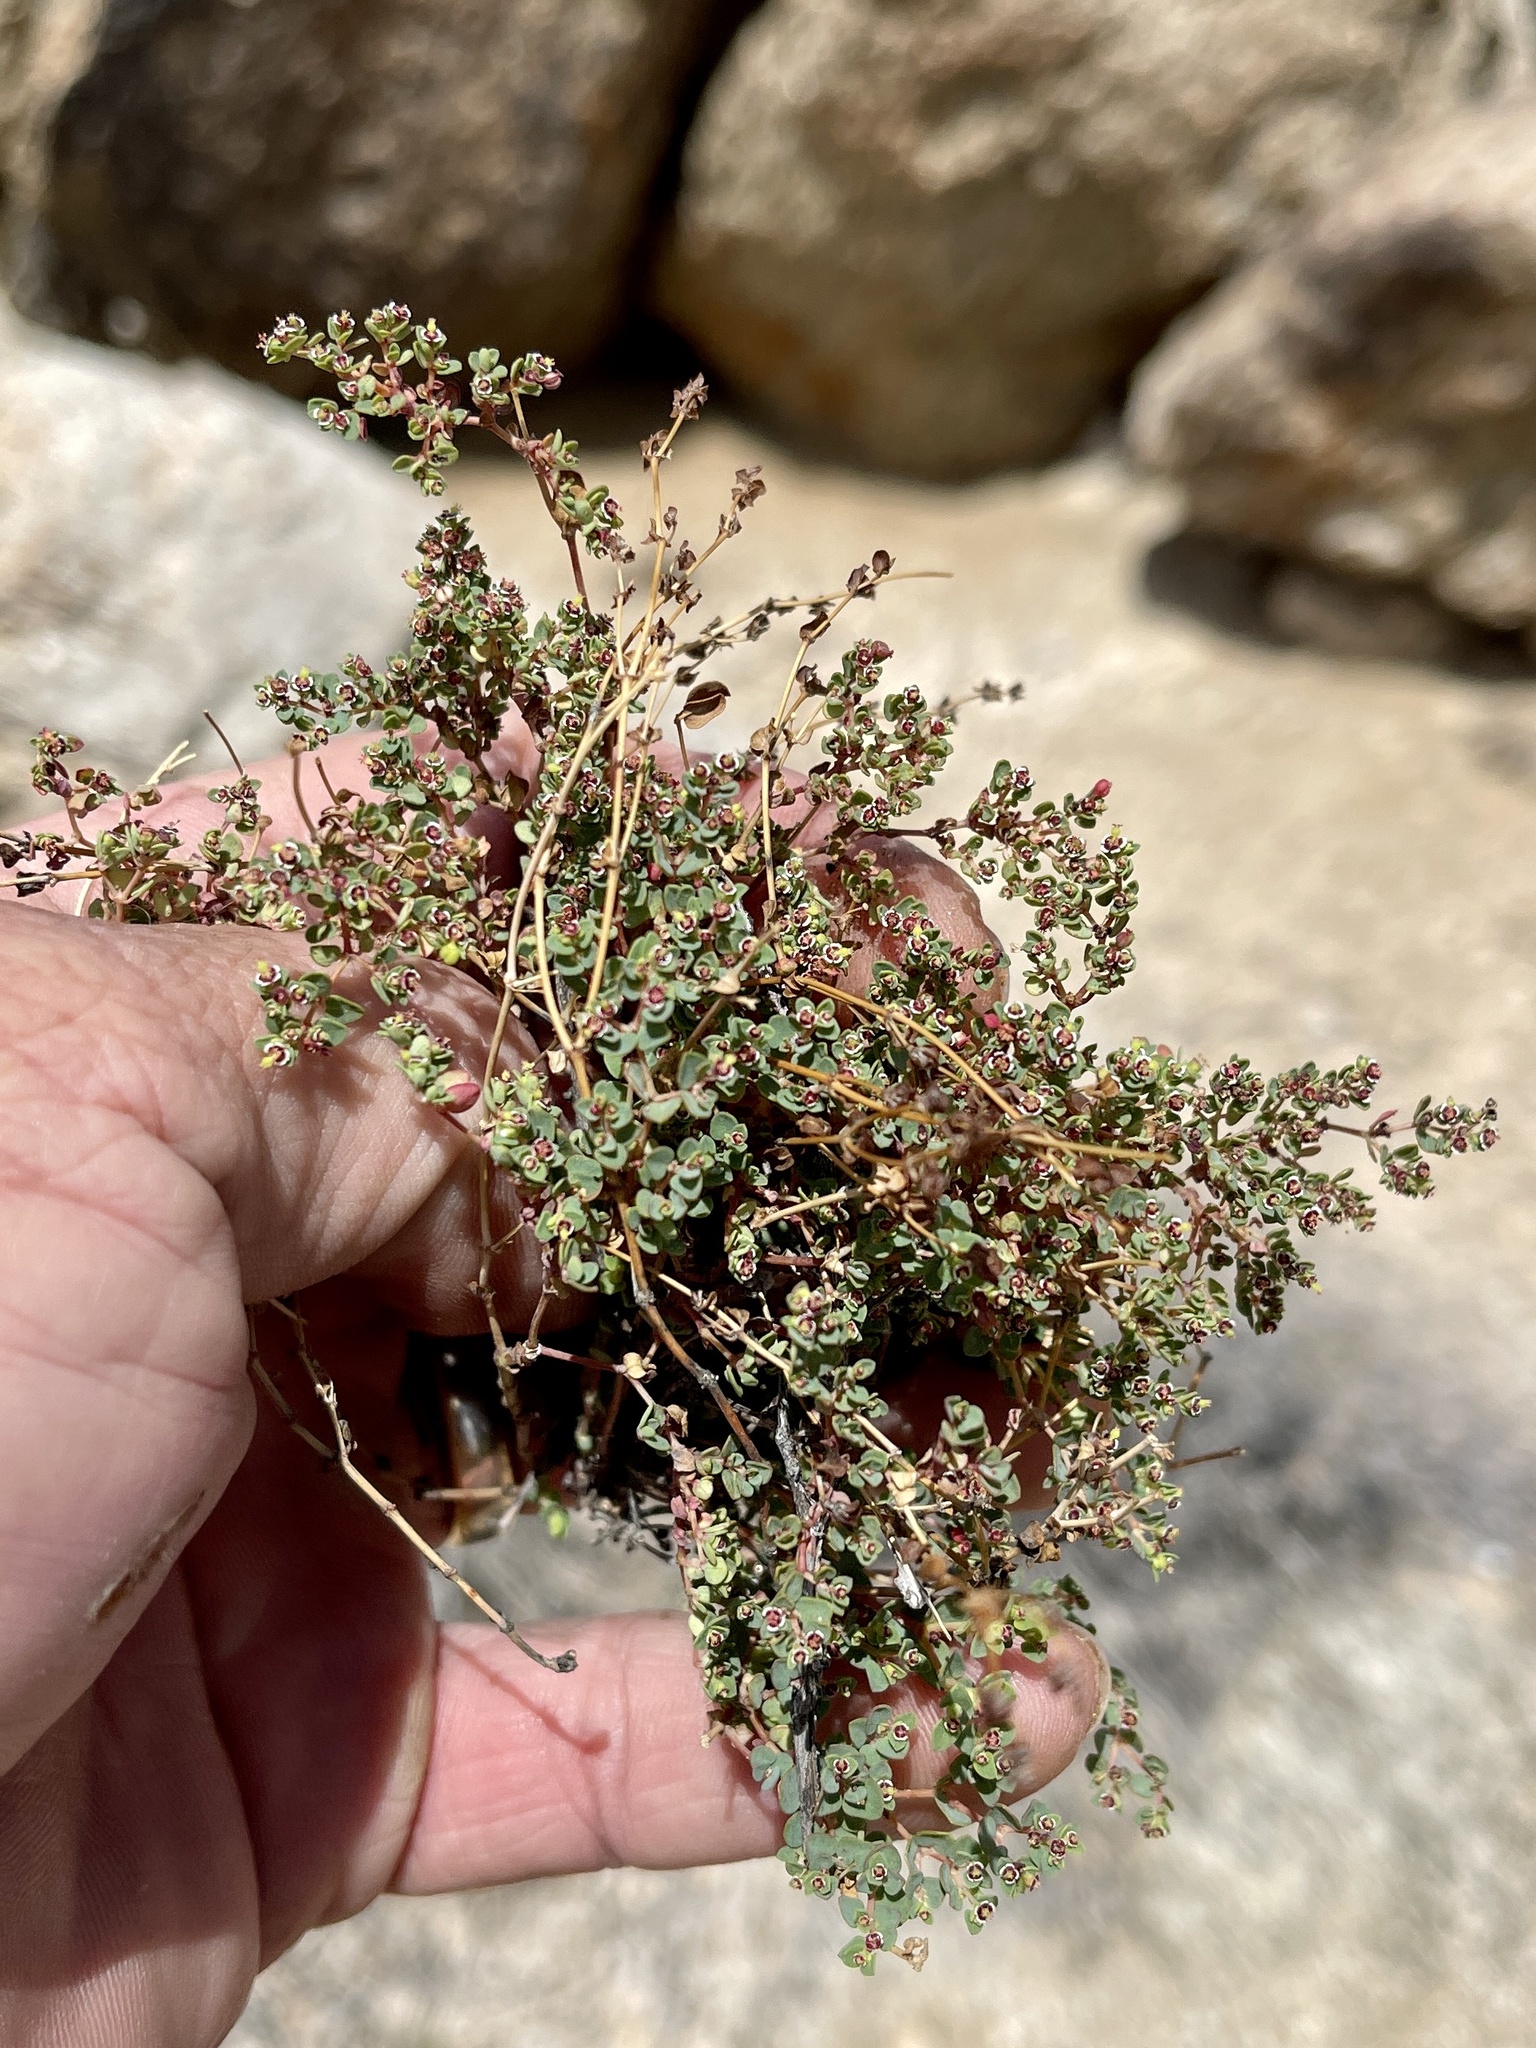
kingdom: Plantae
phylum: Tracheophyta
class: Magnoliopsida
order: Malpighiales
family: Euphorbiaceae
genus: Euphorbia
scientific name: Euphorbia polycarpa
